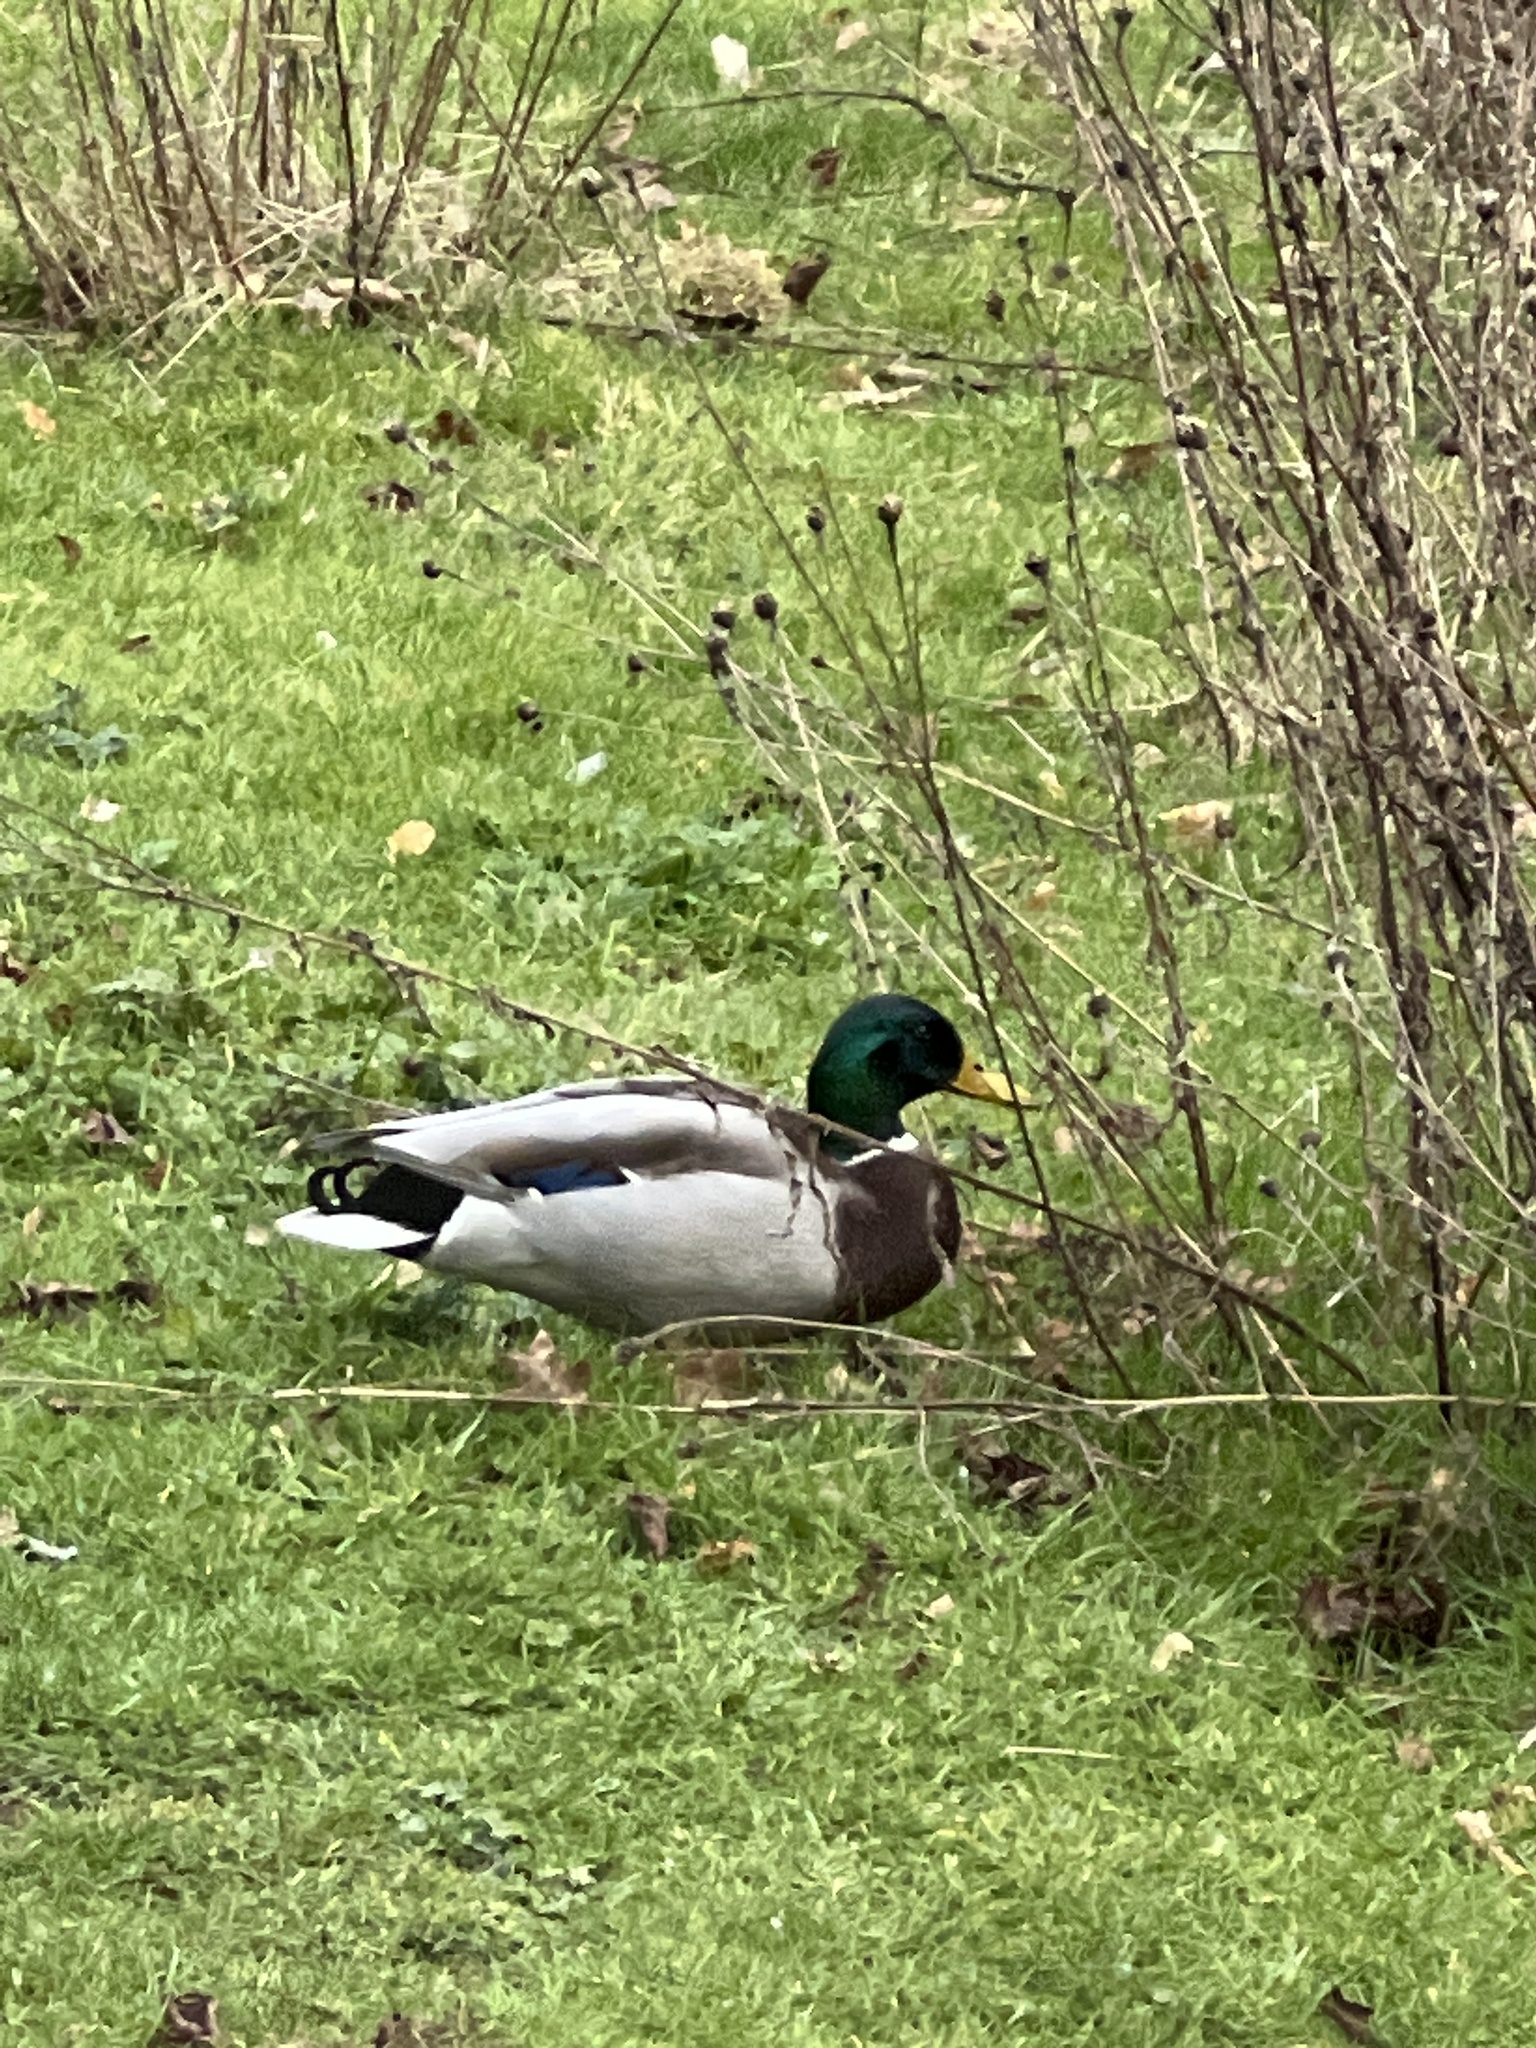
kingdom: Animalia
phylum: Chordata
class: Aves
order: Anseriformes
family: Anatidae
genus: Anas
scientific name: Anas platyrhynchos
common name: Mallard
